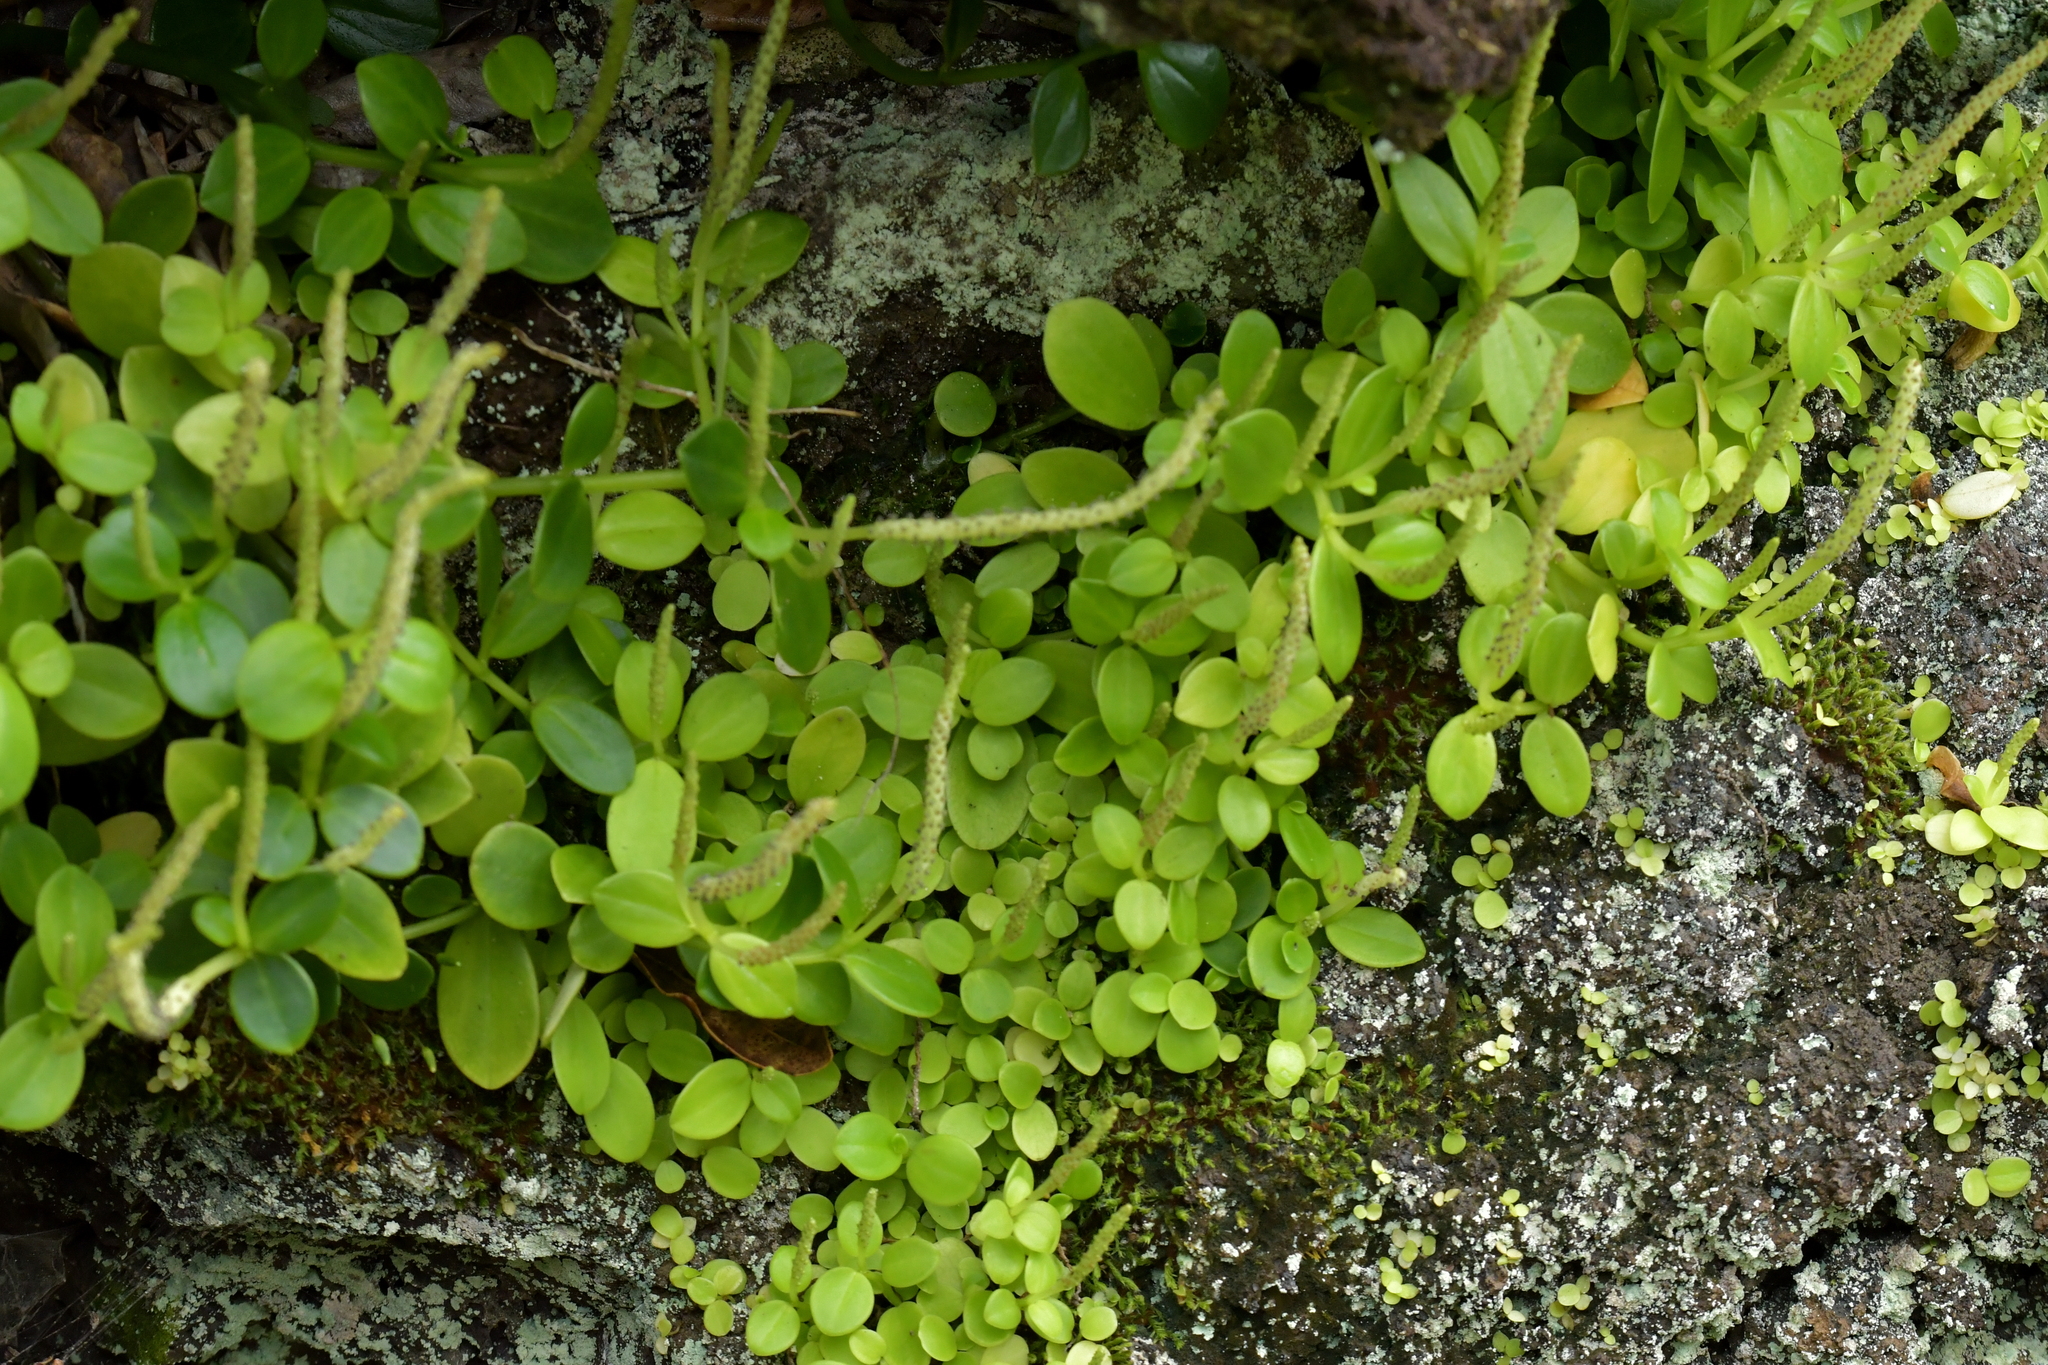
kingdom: Plantae
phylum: Tracheophyta
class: Magnoliopsida
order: Piperales
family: Piperaceae
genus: Peperomia
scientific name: Peperomia urvilleana
